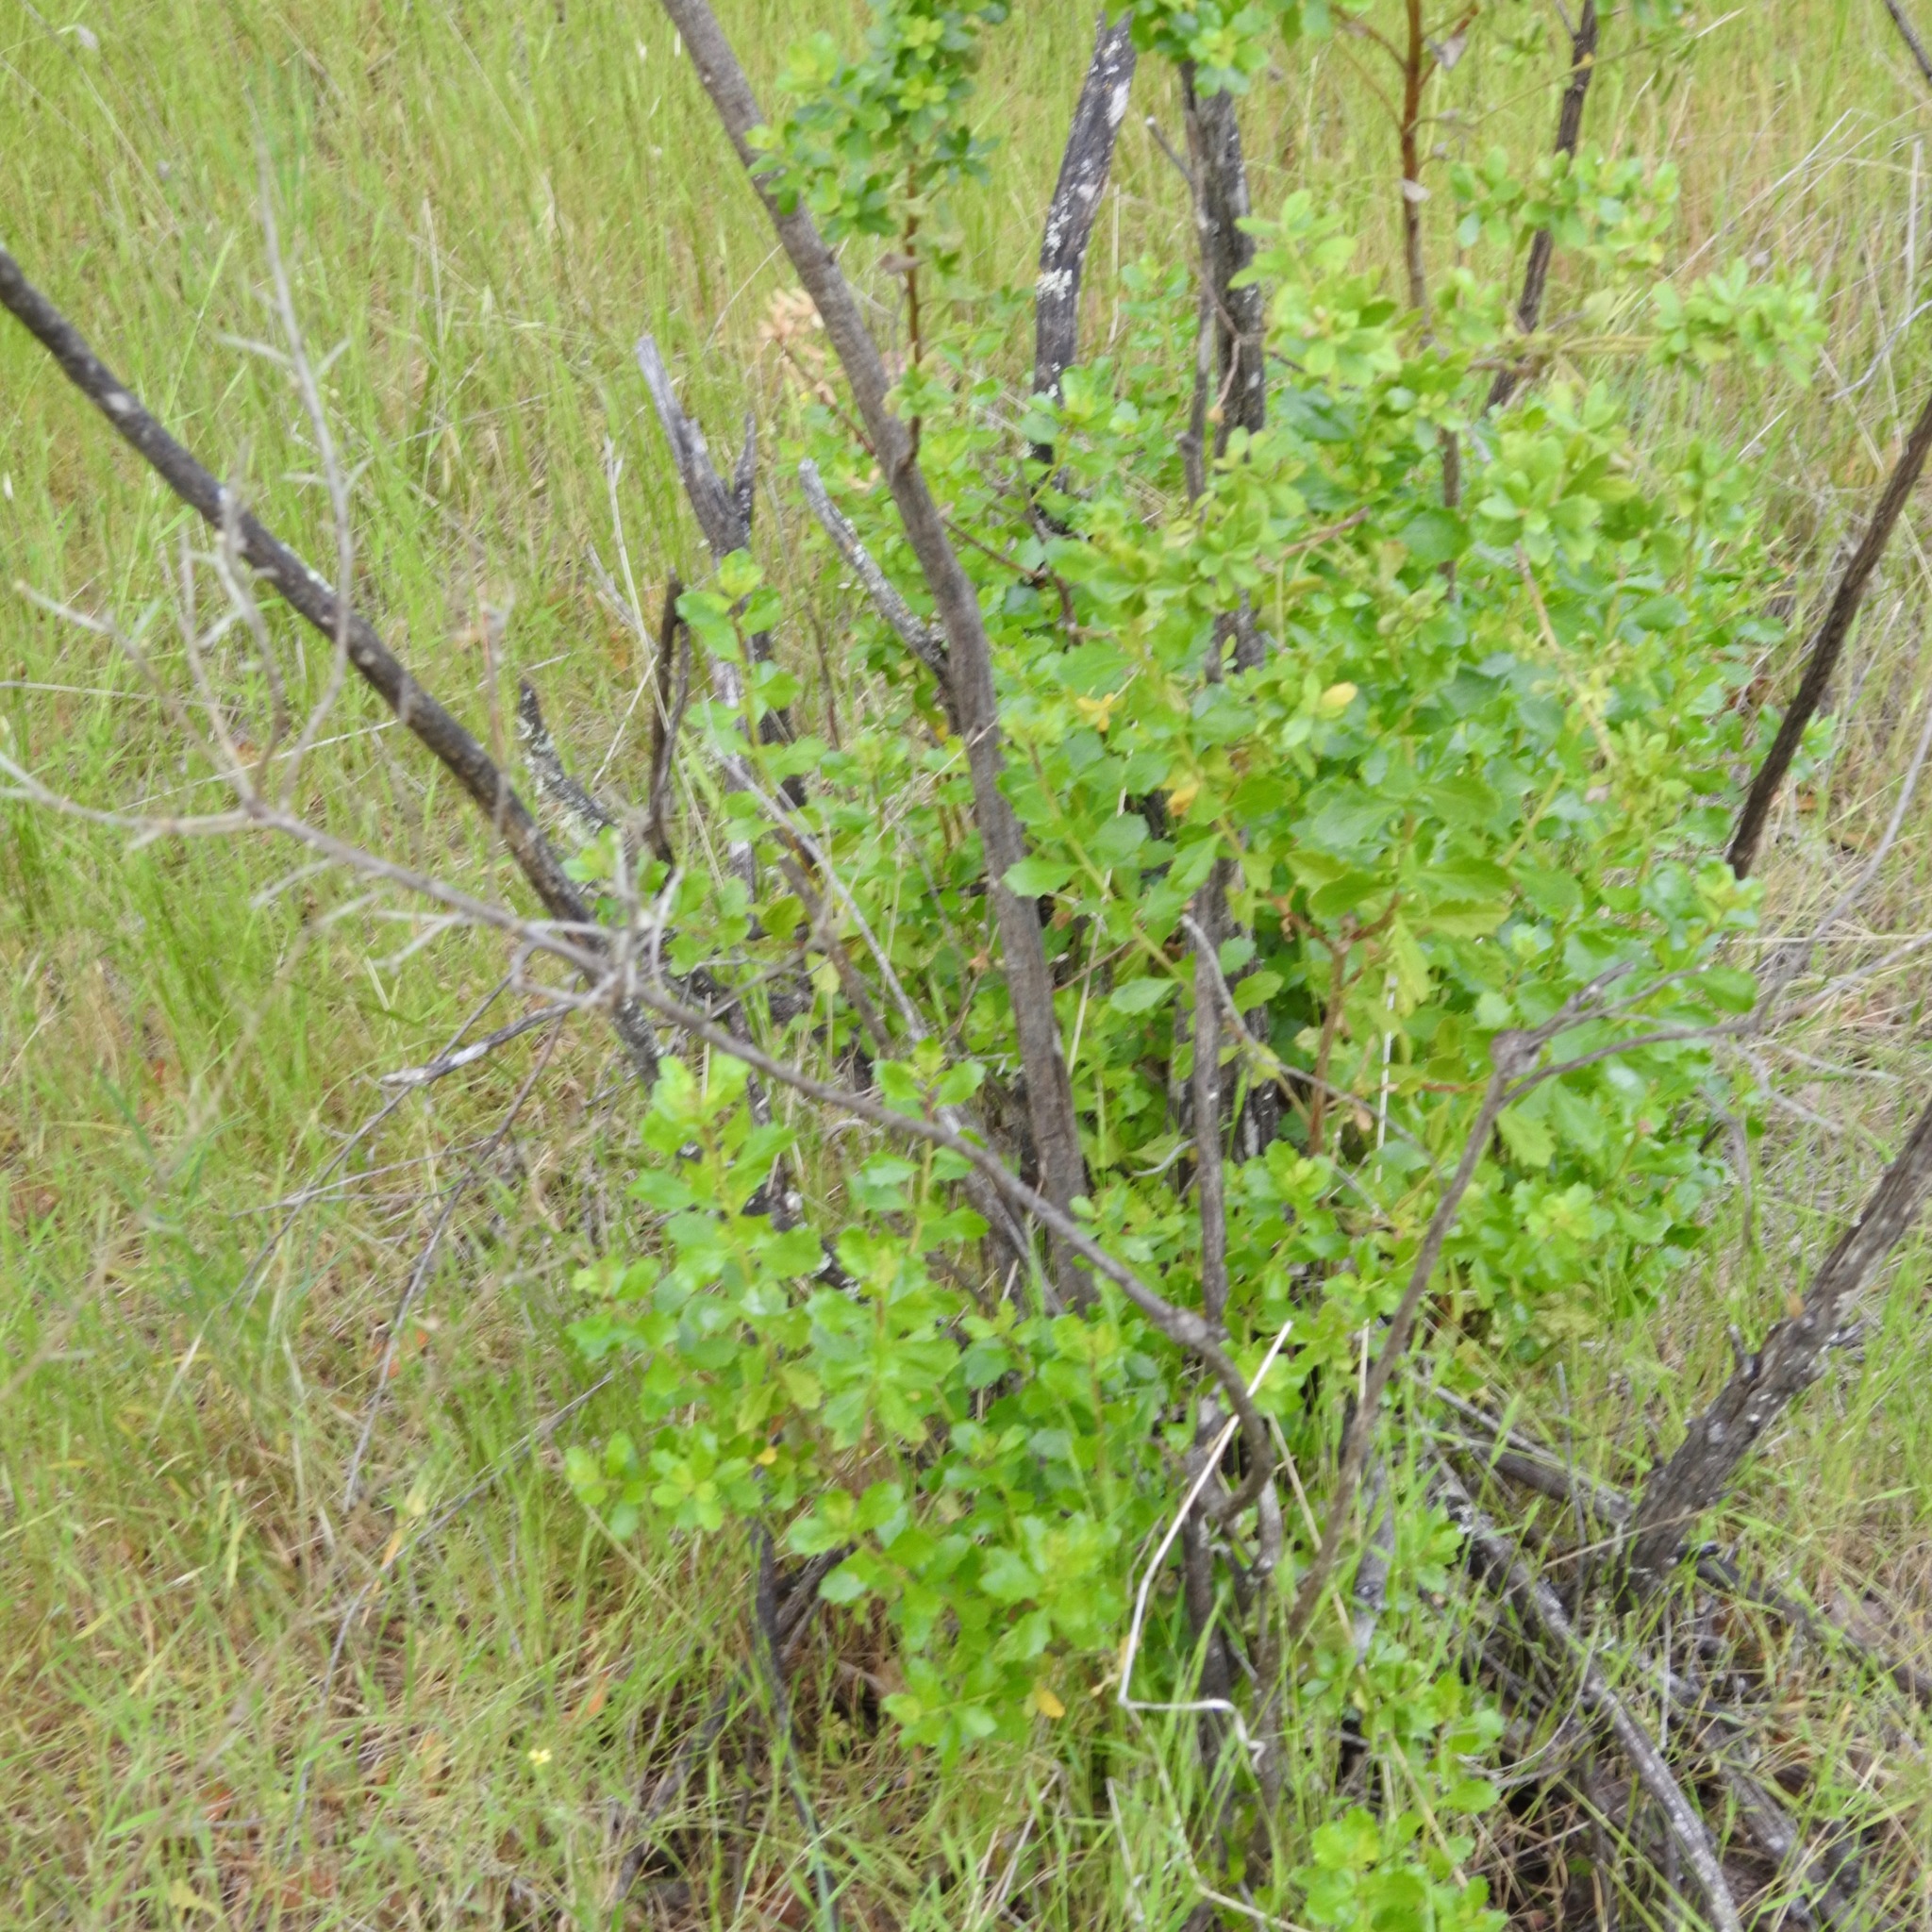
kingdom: Plantae
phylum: Tracheophyta
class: Magnoliopsida
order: Asterales
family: Asteraceae
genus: Baccharis
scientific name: Baccharis pilularis
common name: Coyotebrush
